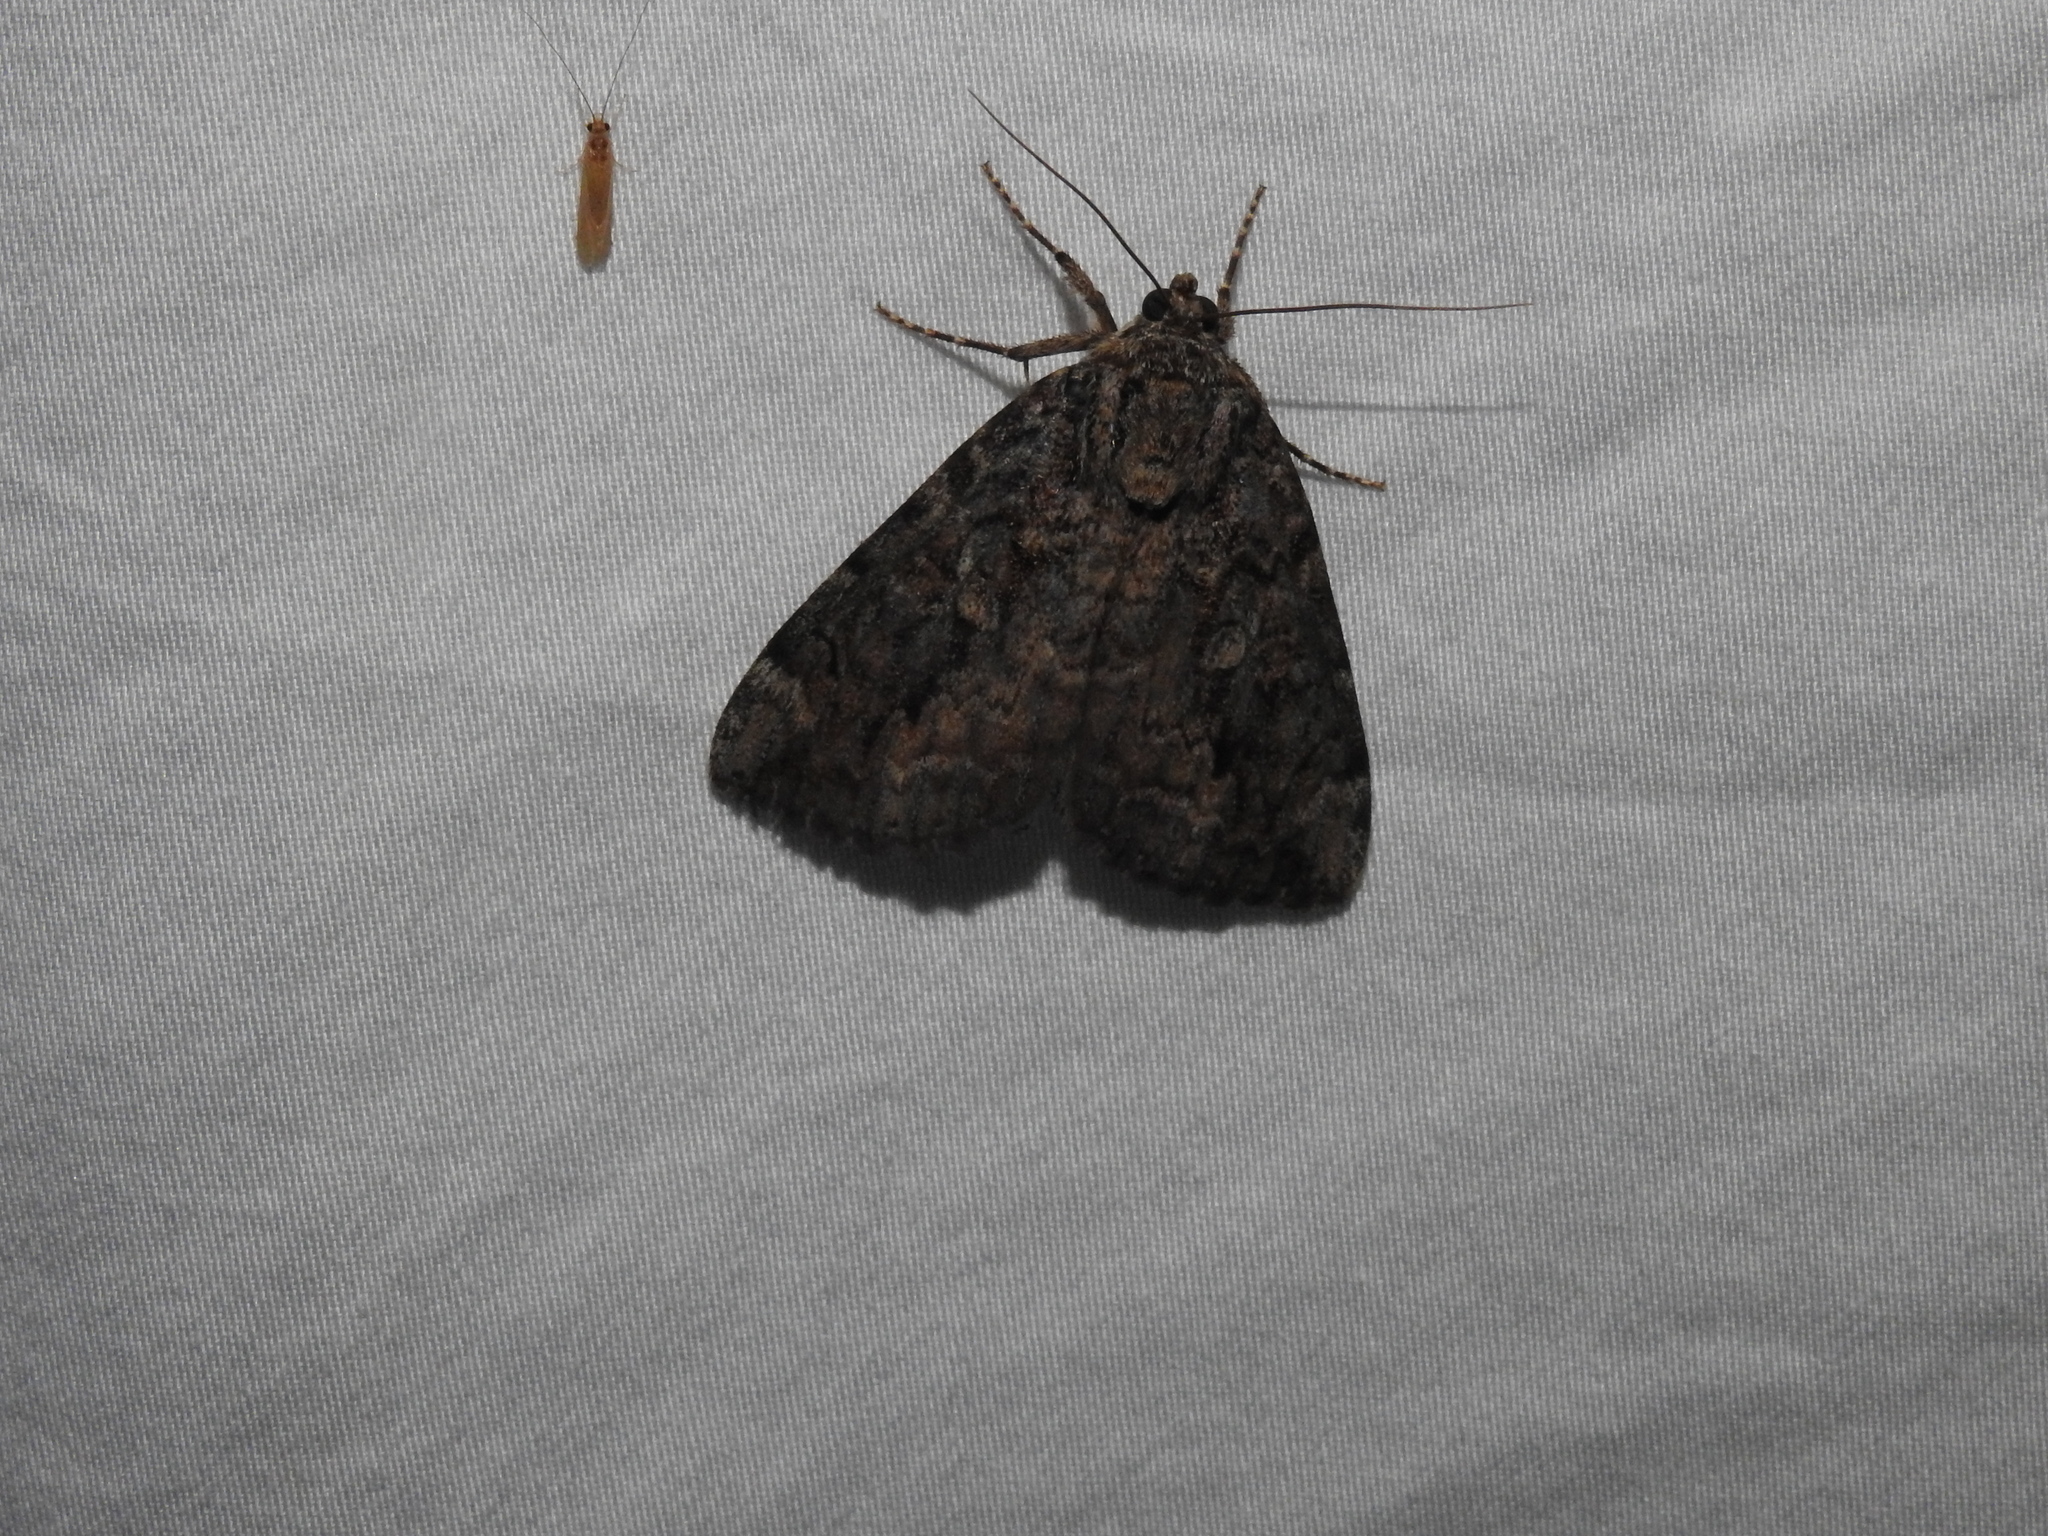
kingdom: Animalia
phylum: Arthropoda
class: Insecta
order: Lepidoptera
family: Erebidae
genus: Catocala
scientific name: Catocala innubens
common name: Betrothed underwing
